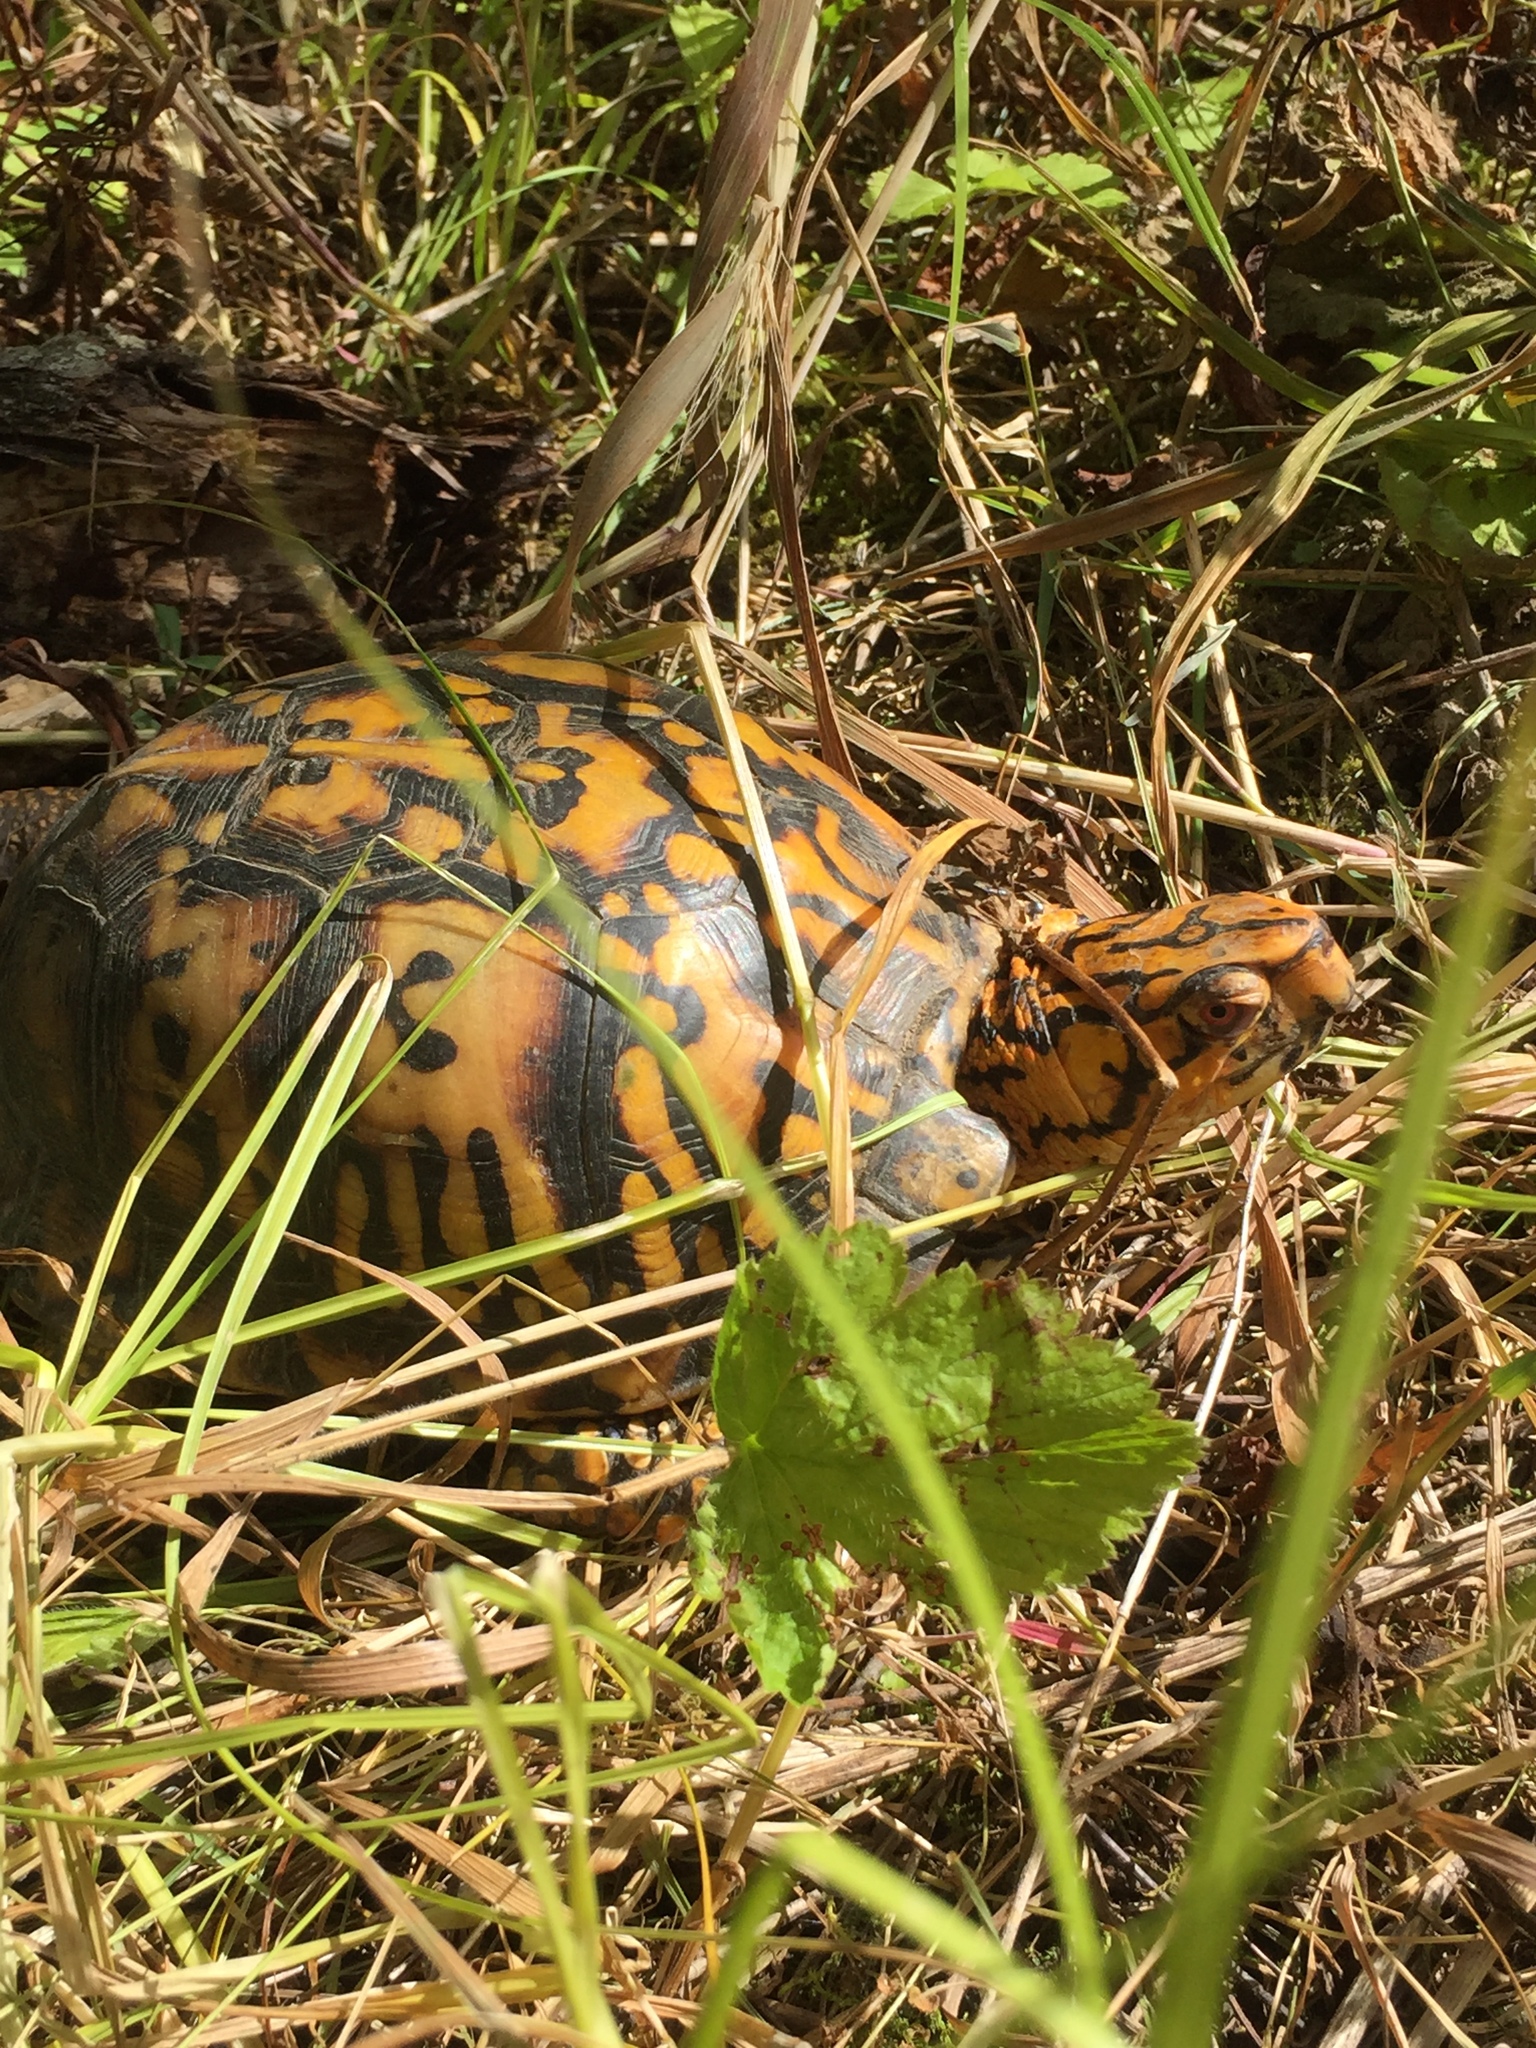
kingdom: Animalia
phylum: Chordata
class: Testudines
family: Emydidae
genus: Terrapene
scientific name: Terrapene carolina
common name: Common box turtle
